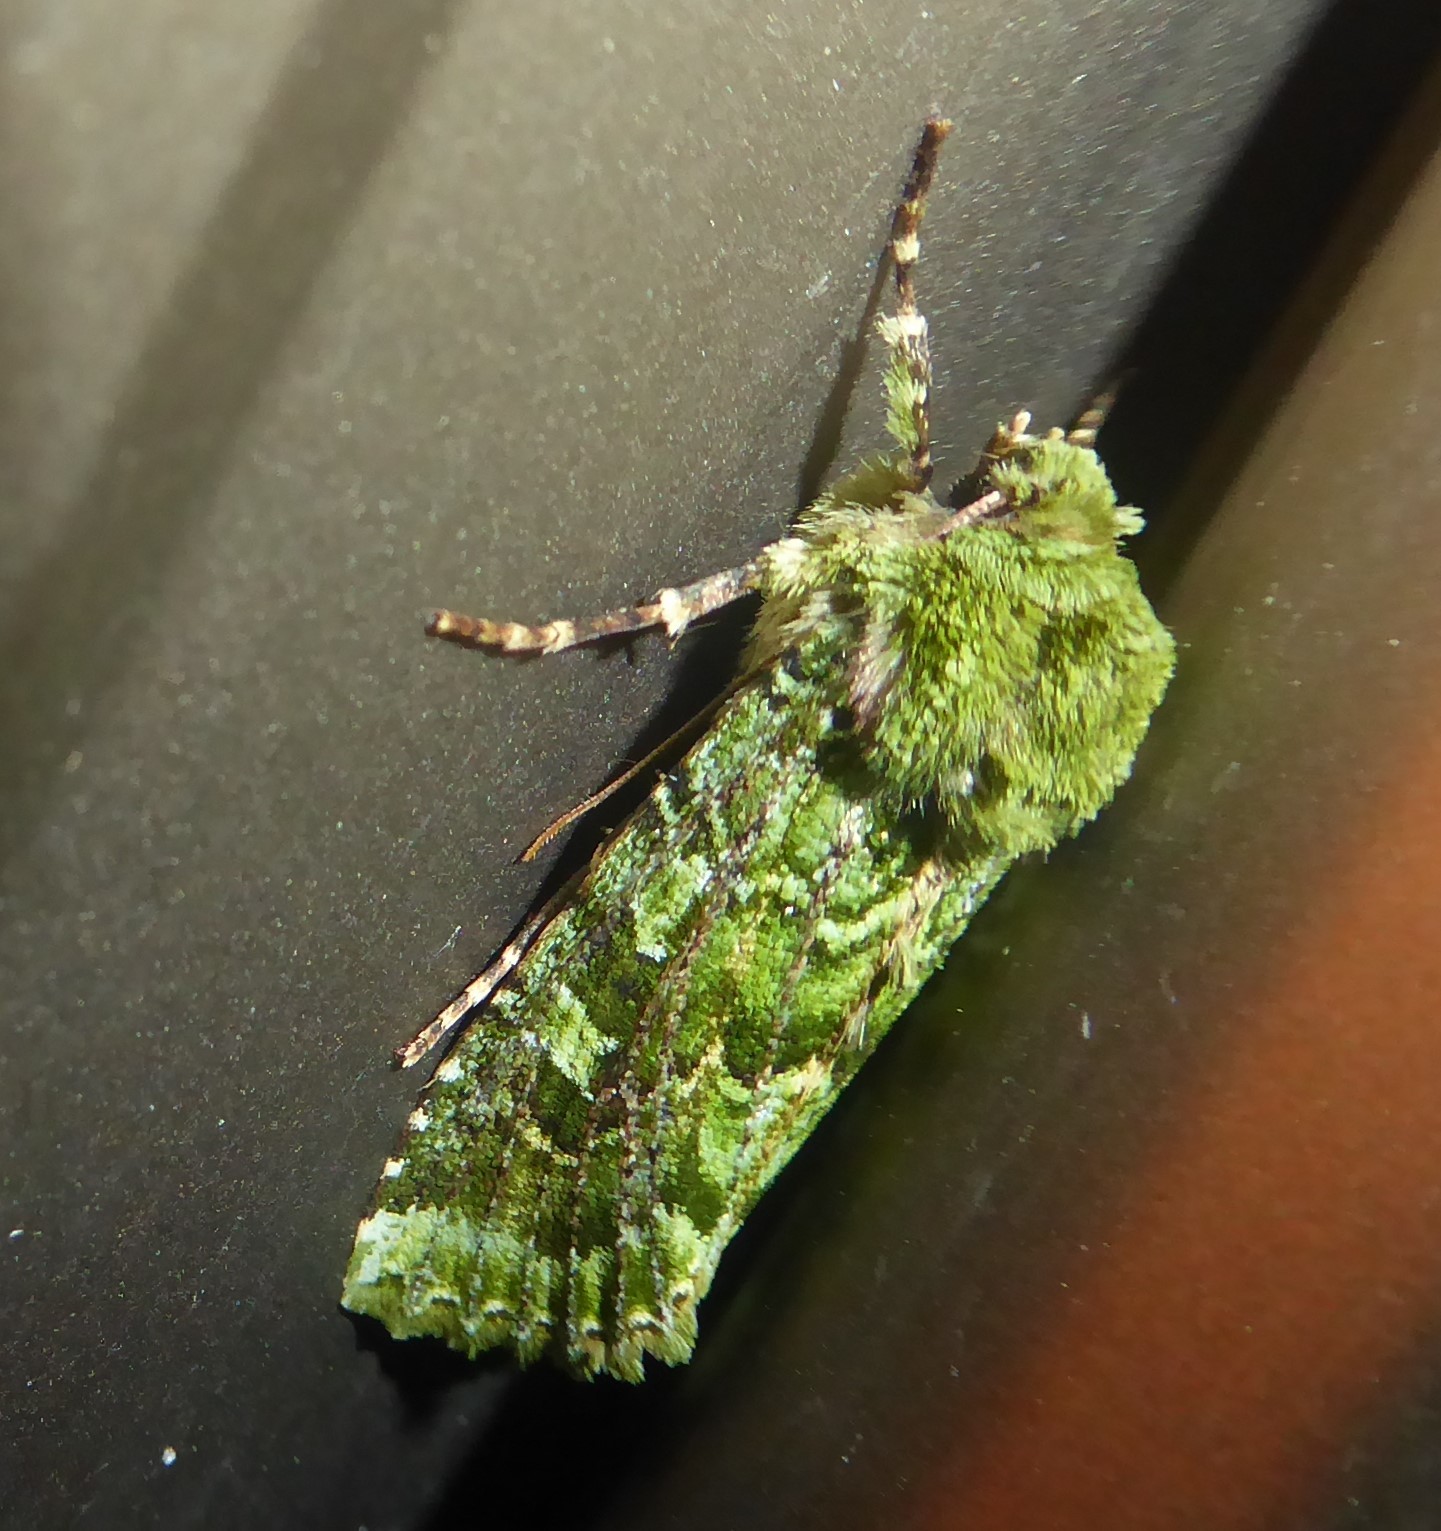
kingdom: Animalia
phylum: Arthropoda
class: Insecta
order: Lepidoptera
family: Noctuidae
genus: Feredayia
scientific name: Feredayia grammosa
